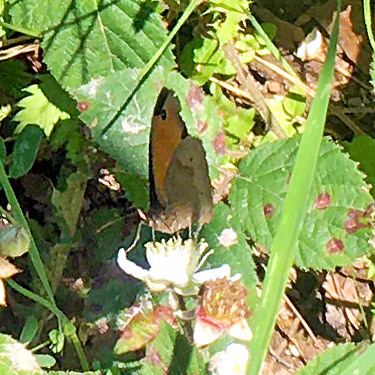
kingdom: Animalia
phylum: Arthropoda
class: Insecta
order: Lepidoptera
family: Nymphalidae
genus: Maniola
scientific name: Maniola jurtina
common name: Meadow brown
